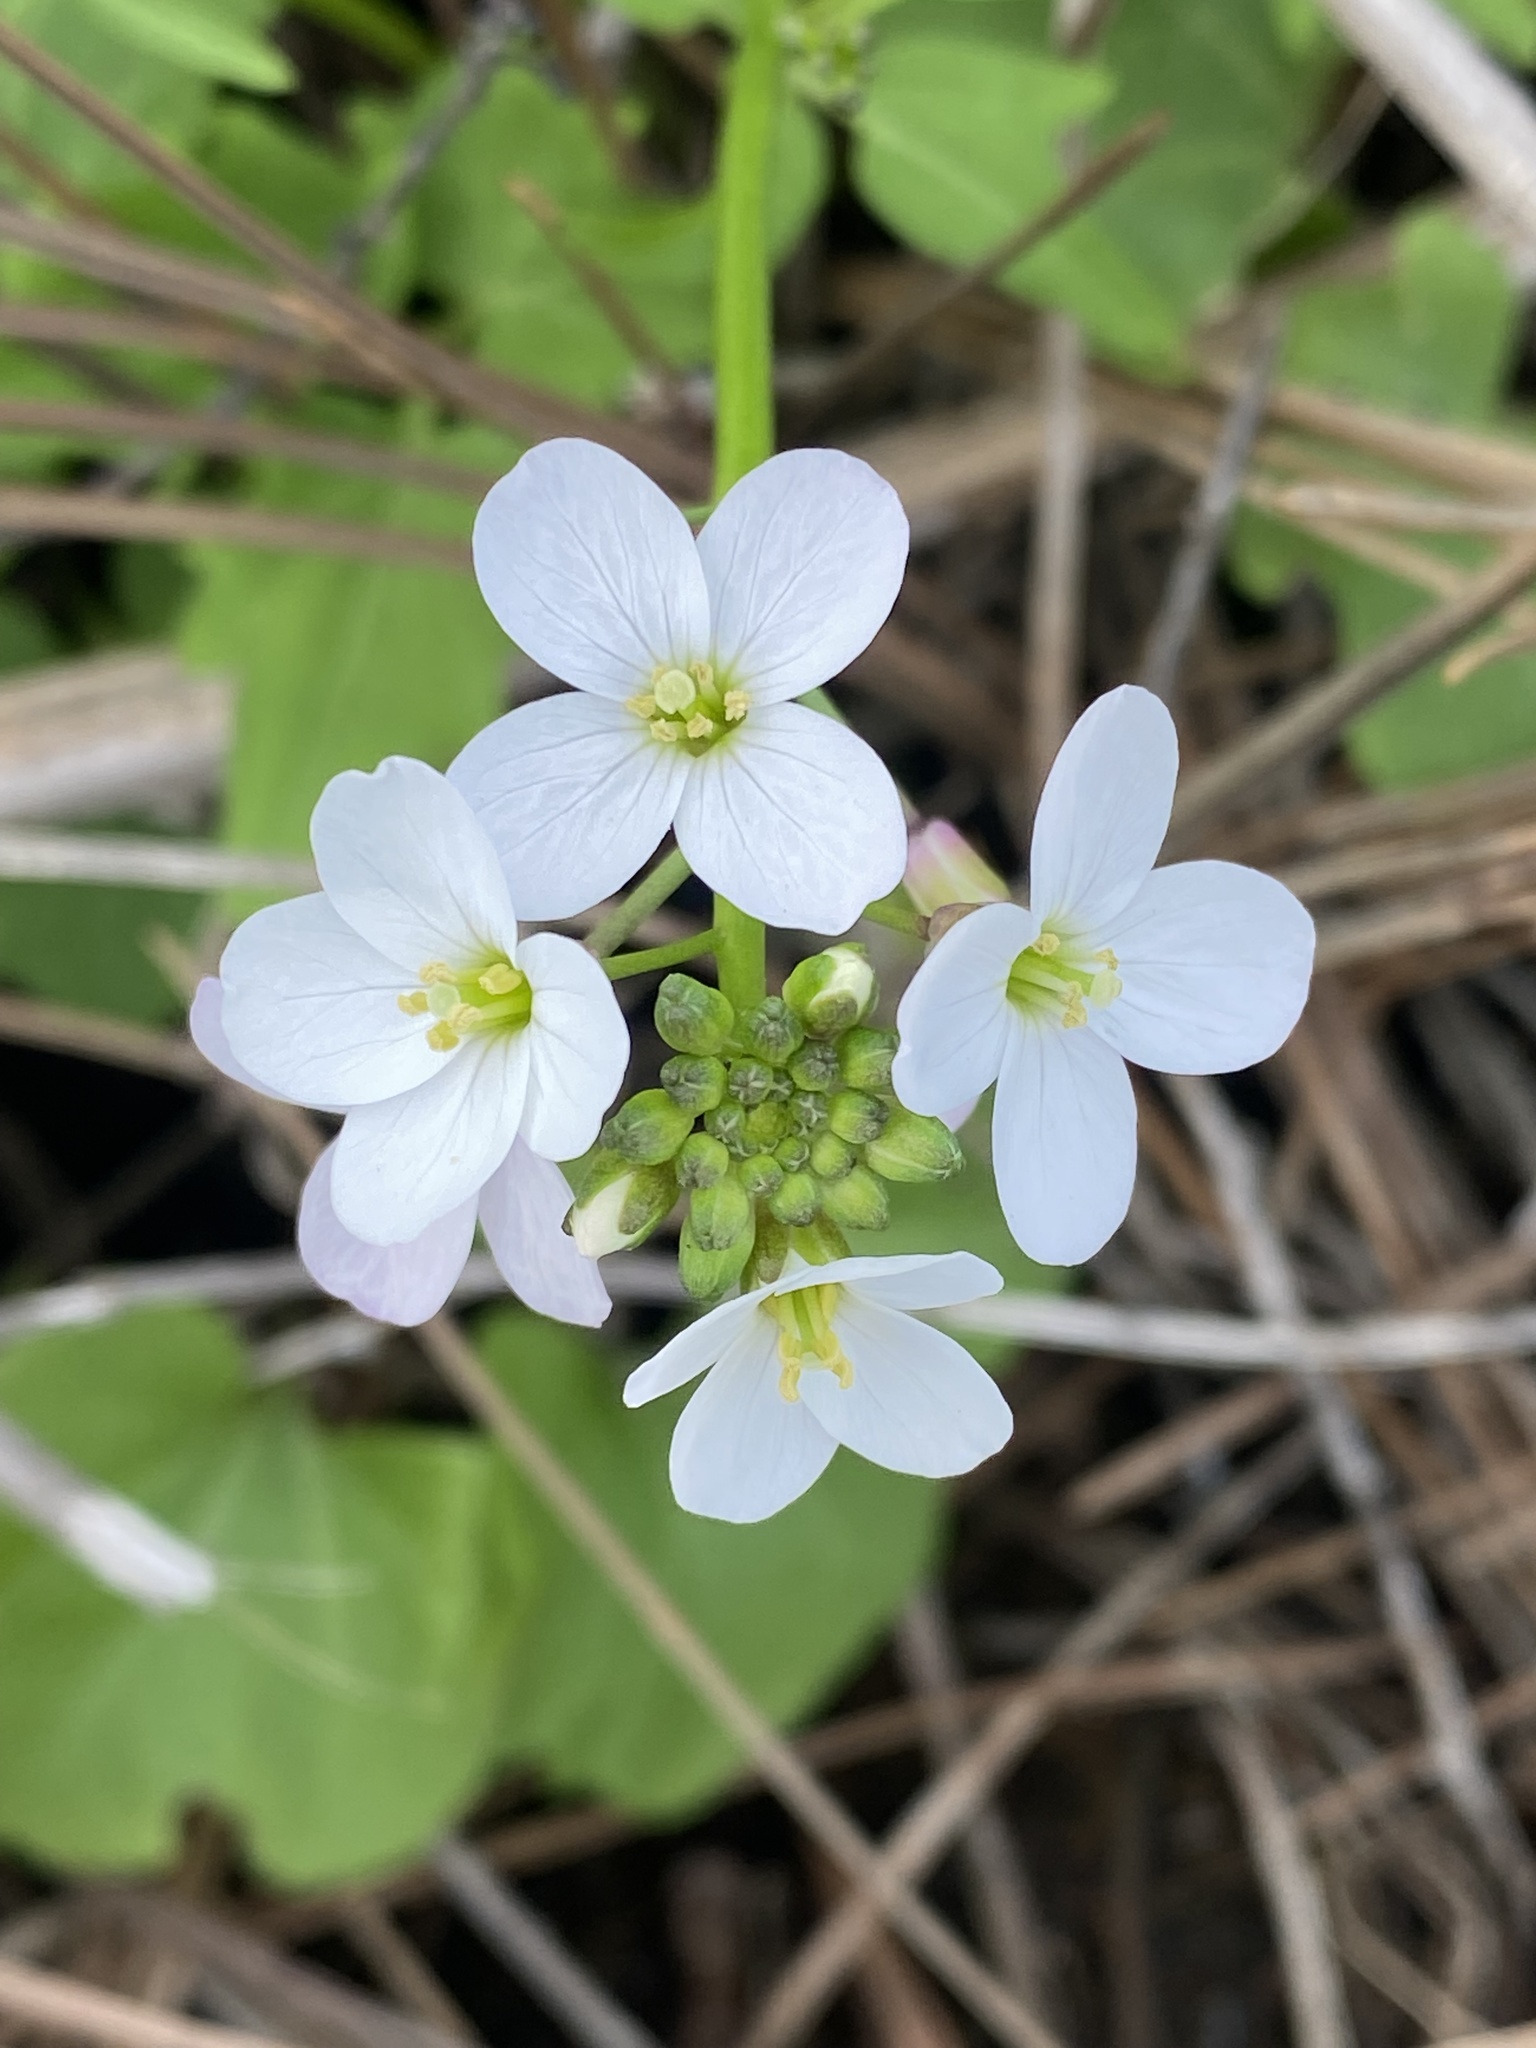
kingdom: Plantae
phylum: Tracheophyta
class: Magnoliopsida
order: Brassicales
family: Brassicaceae
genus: Cardamine
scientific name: Cardamine californica
